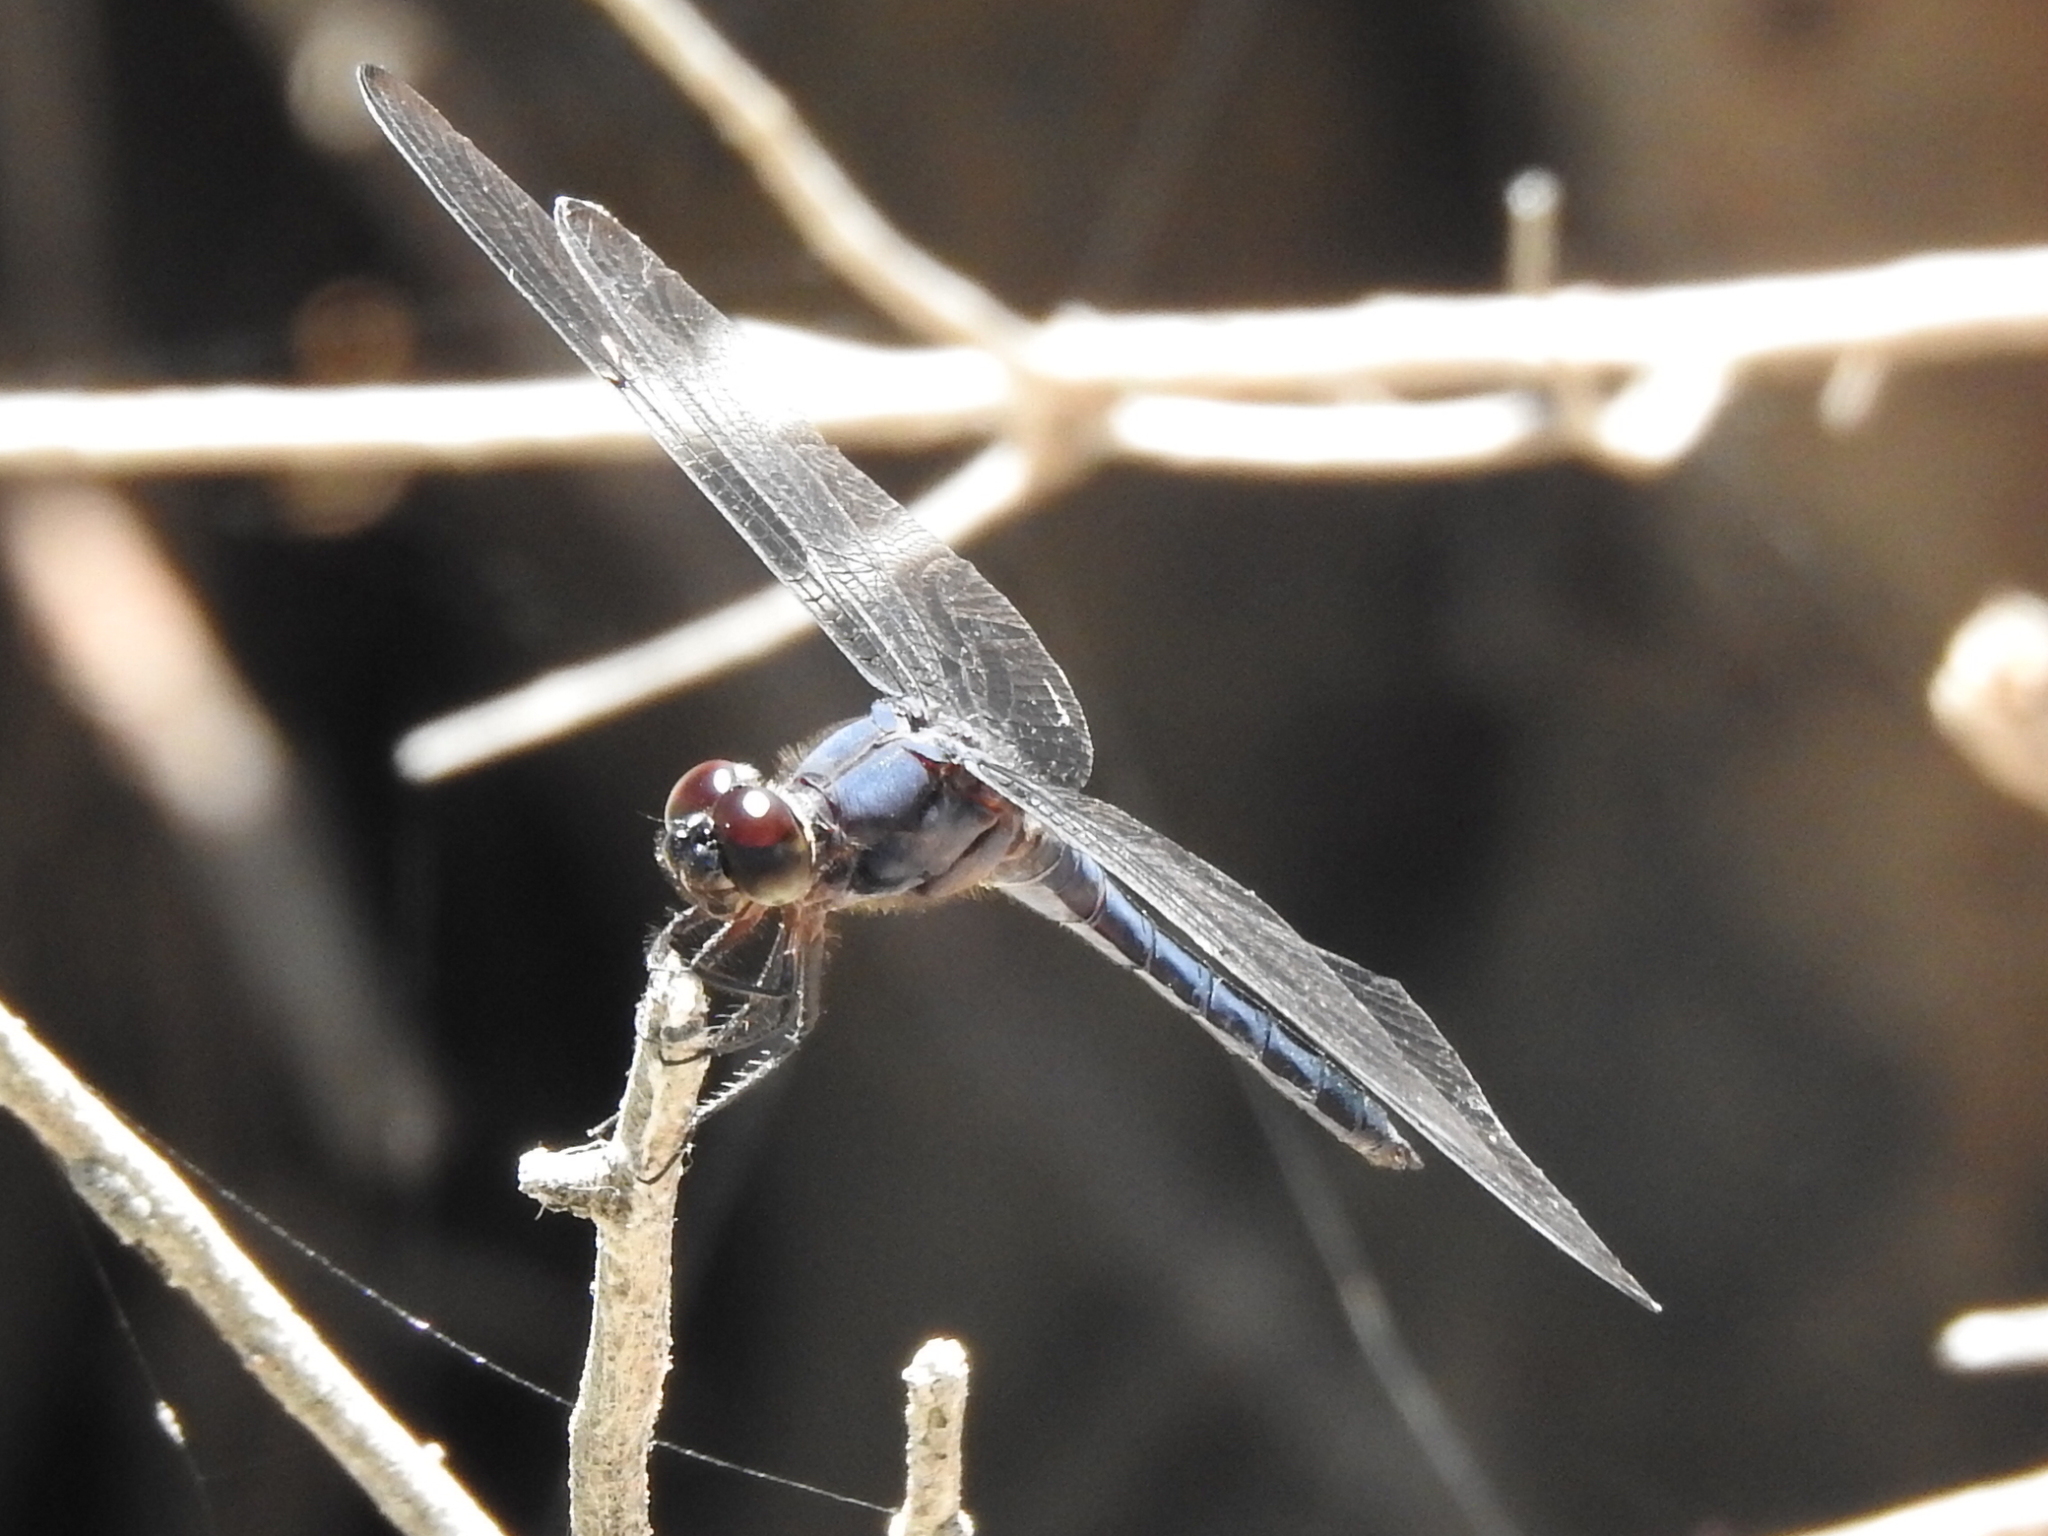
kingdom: Animalia
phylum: Arthropoda
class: Insecta
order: Odonata
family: Libellulidae
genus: Libellula
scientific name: Libellula incesta
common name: Slaty skimmer
